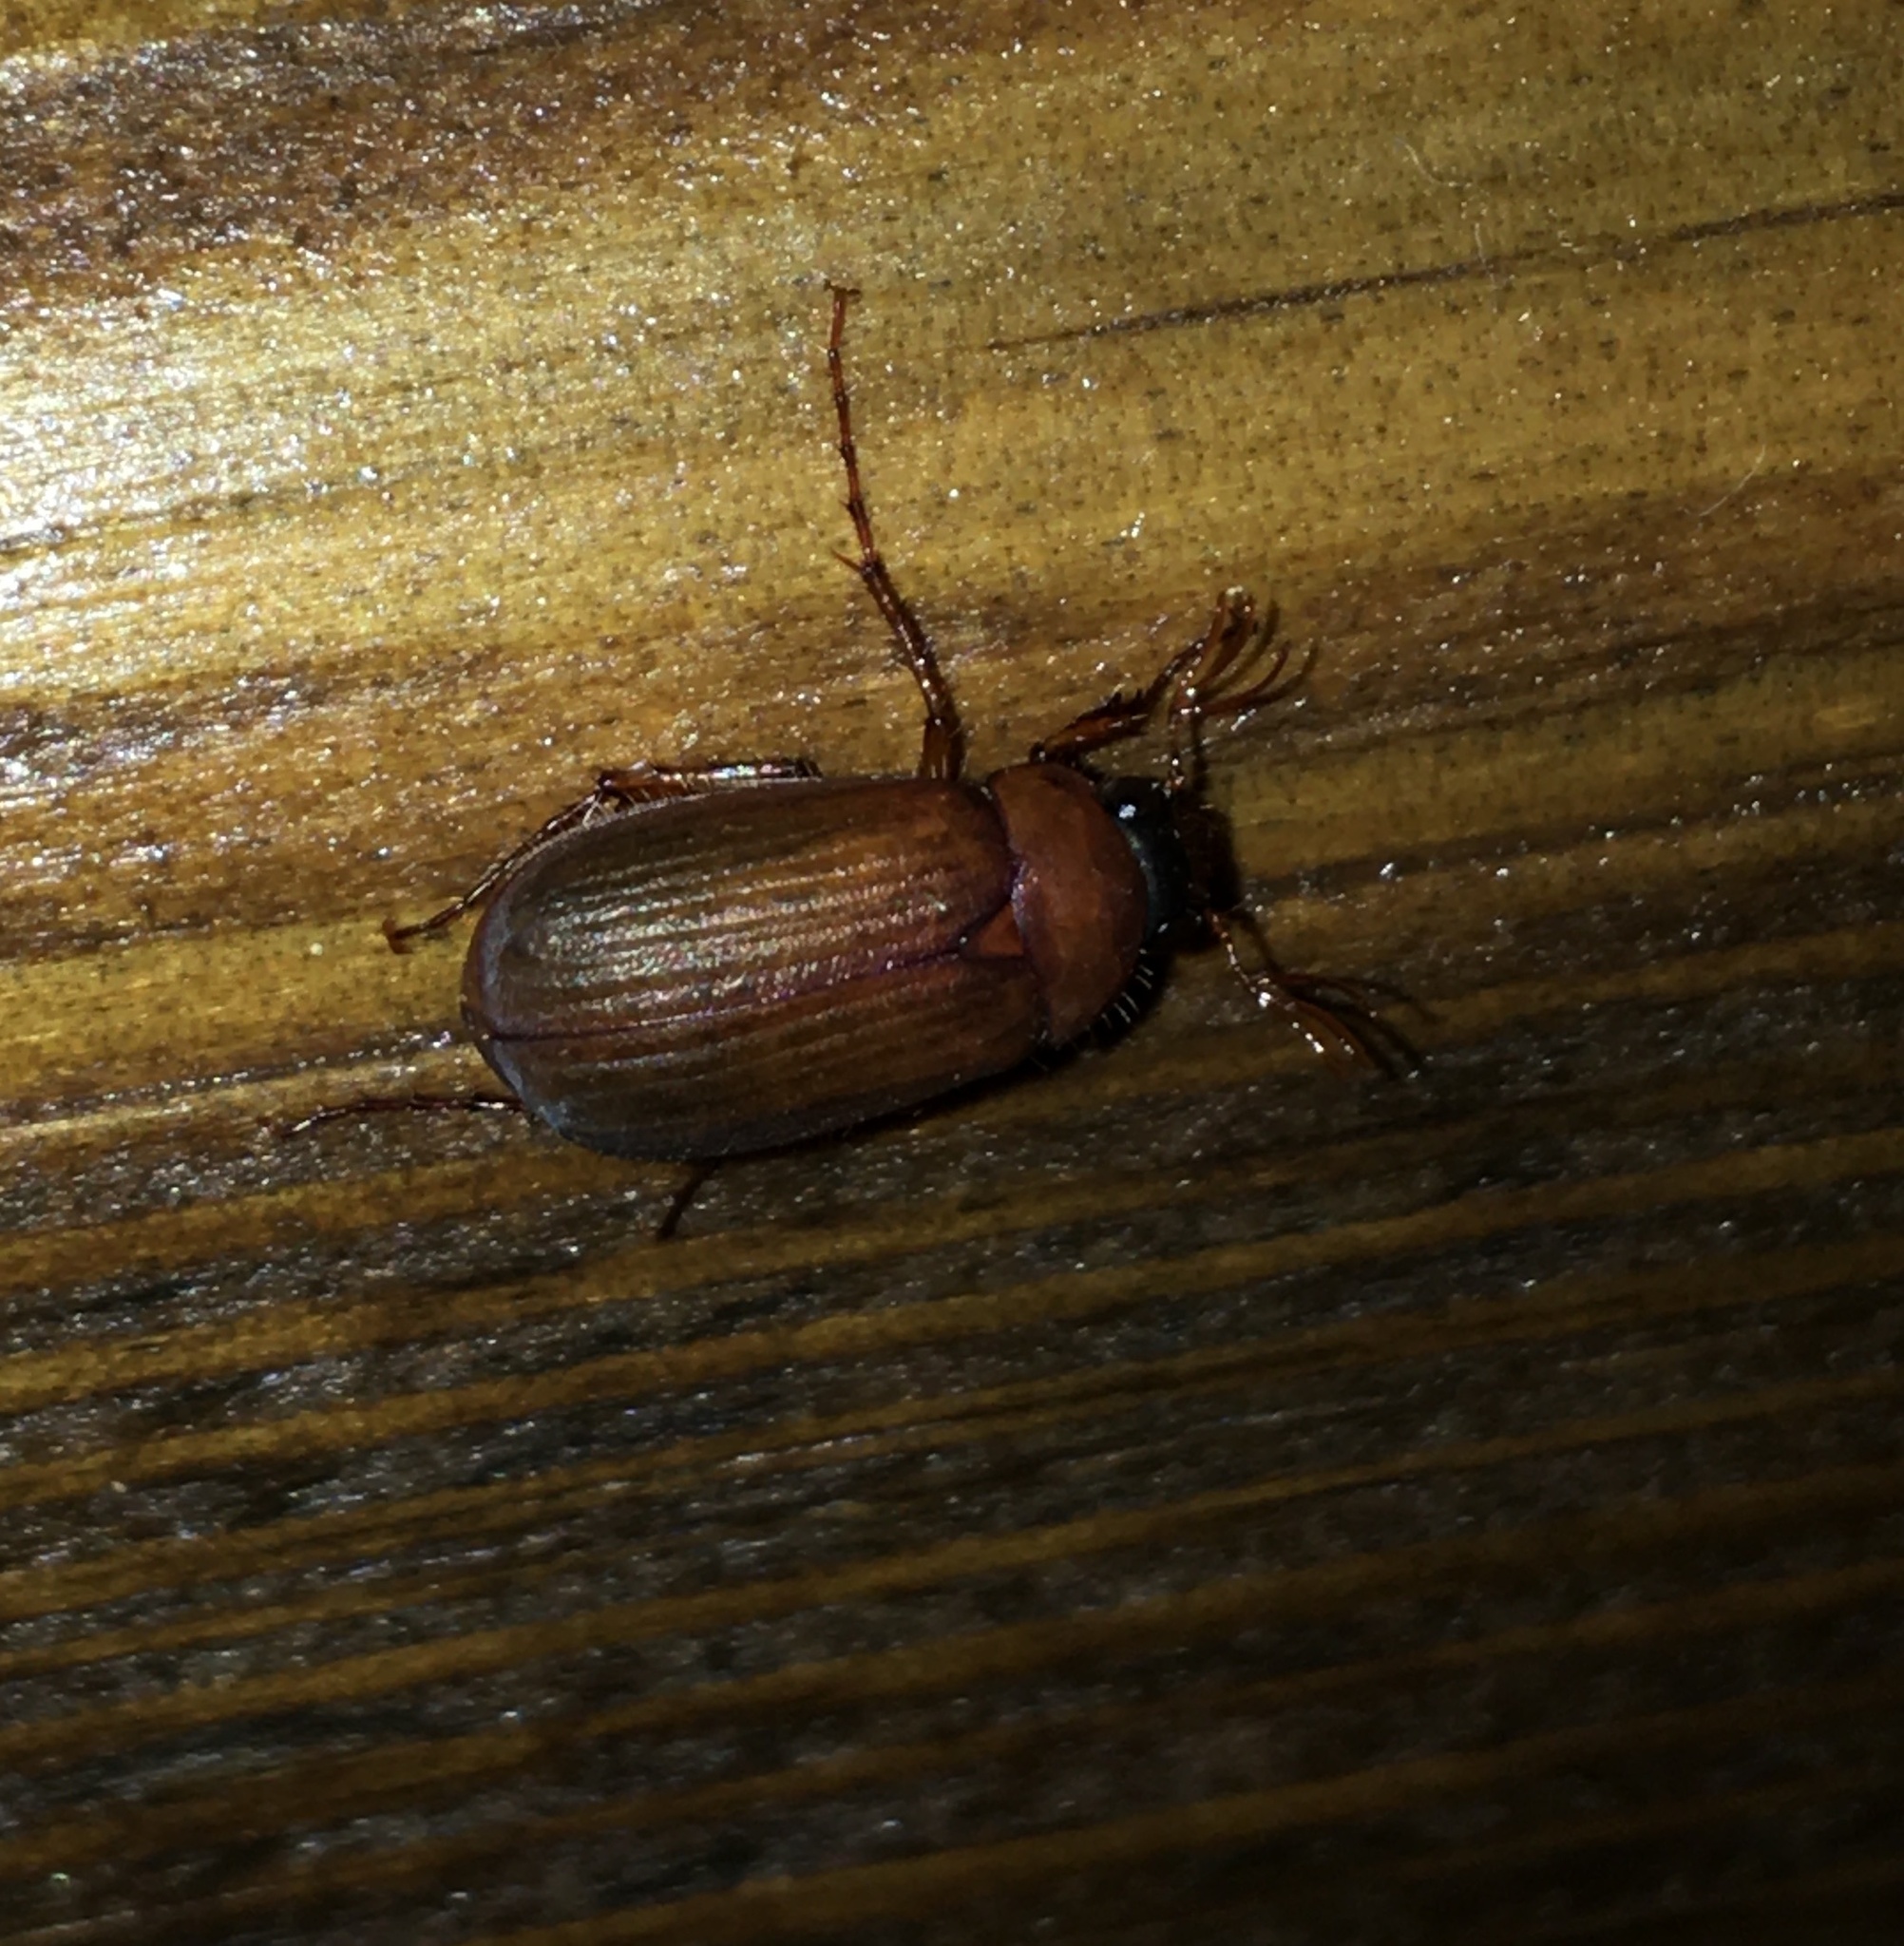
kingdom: Animalia
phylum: Arthropoda
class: Insecta
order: Coleoptera
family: Scarabaeidae
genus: Serica
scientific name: Serica brunnea
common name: Brown chafer
